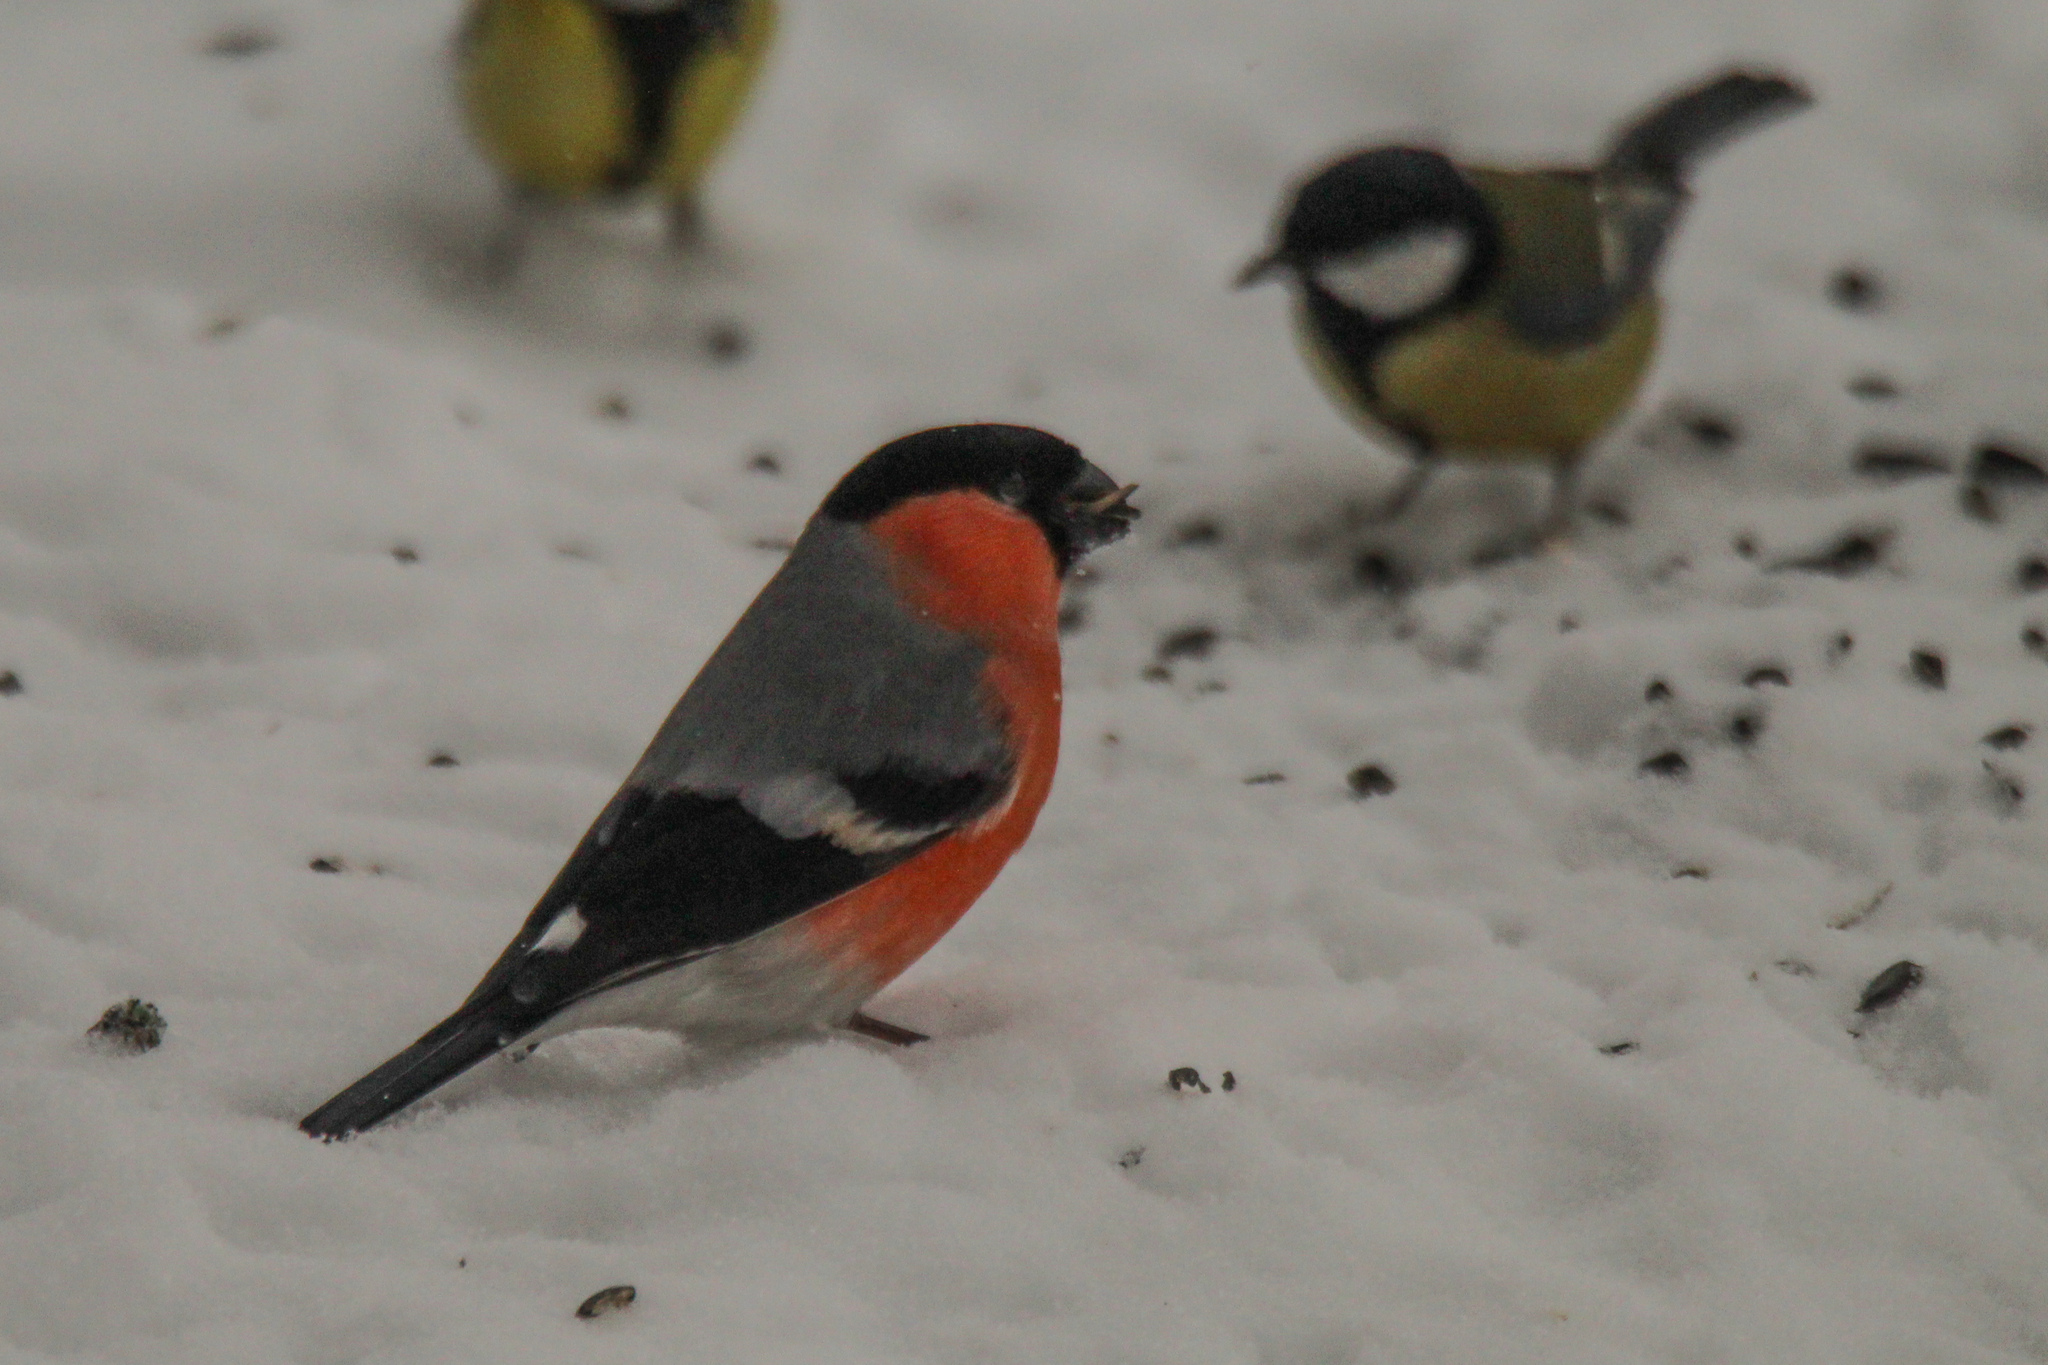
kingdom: Animalia
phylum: Chordata
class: Aves
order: Passeriformes
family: Fringillidae
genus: Pyrrhula
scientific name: Pyrrhula pyrrhula
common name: Eurasian bullfinch
